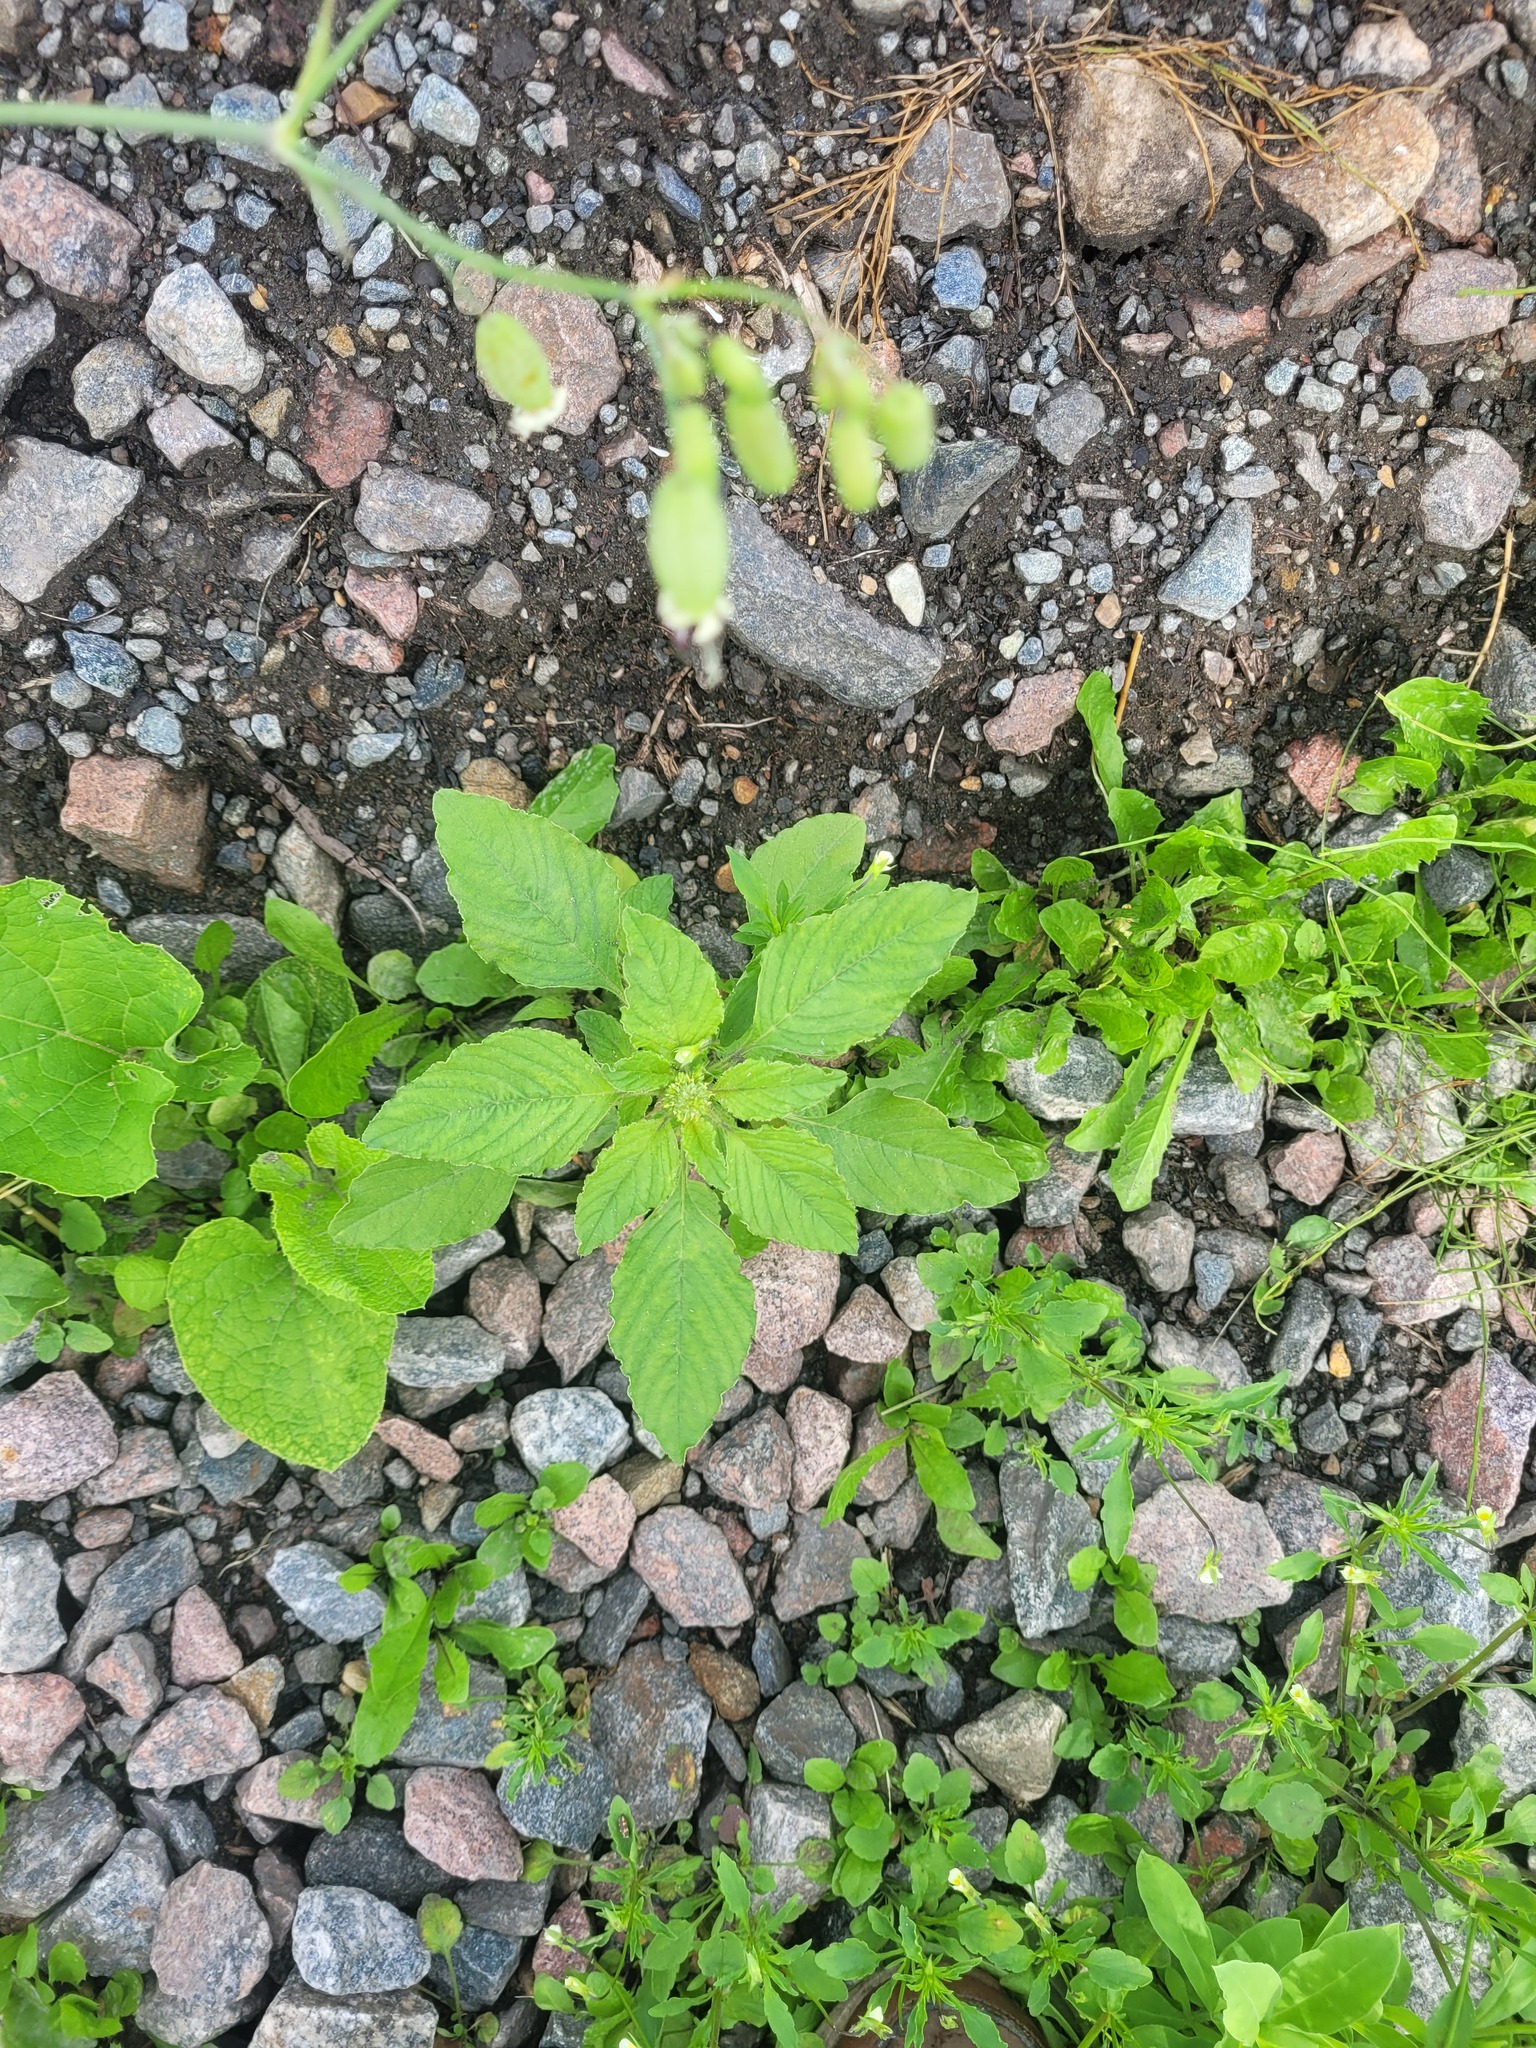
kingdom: Plantae
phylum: Tracheophyta
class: Magnoliopsida
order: Caryophyllales
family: Amaranthaceae
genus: Amaranthus
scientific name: Amaranthus retroflexus
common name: Redroot amaranth
